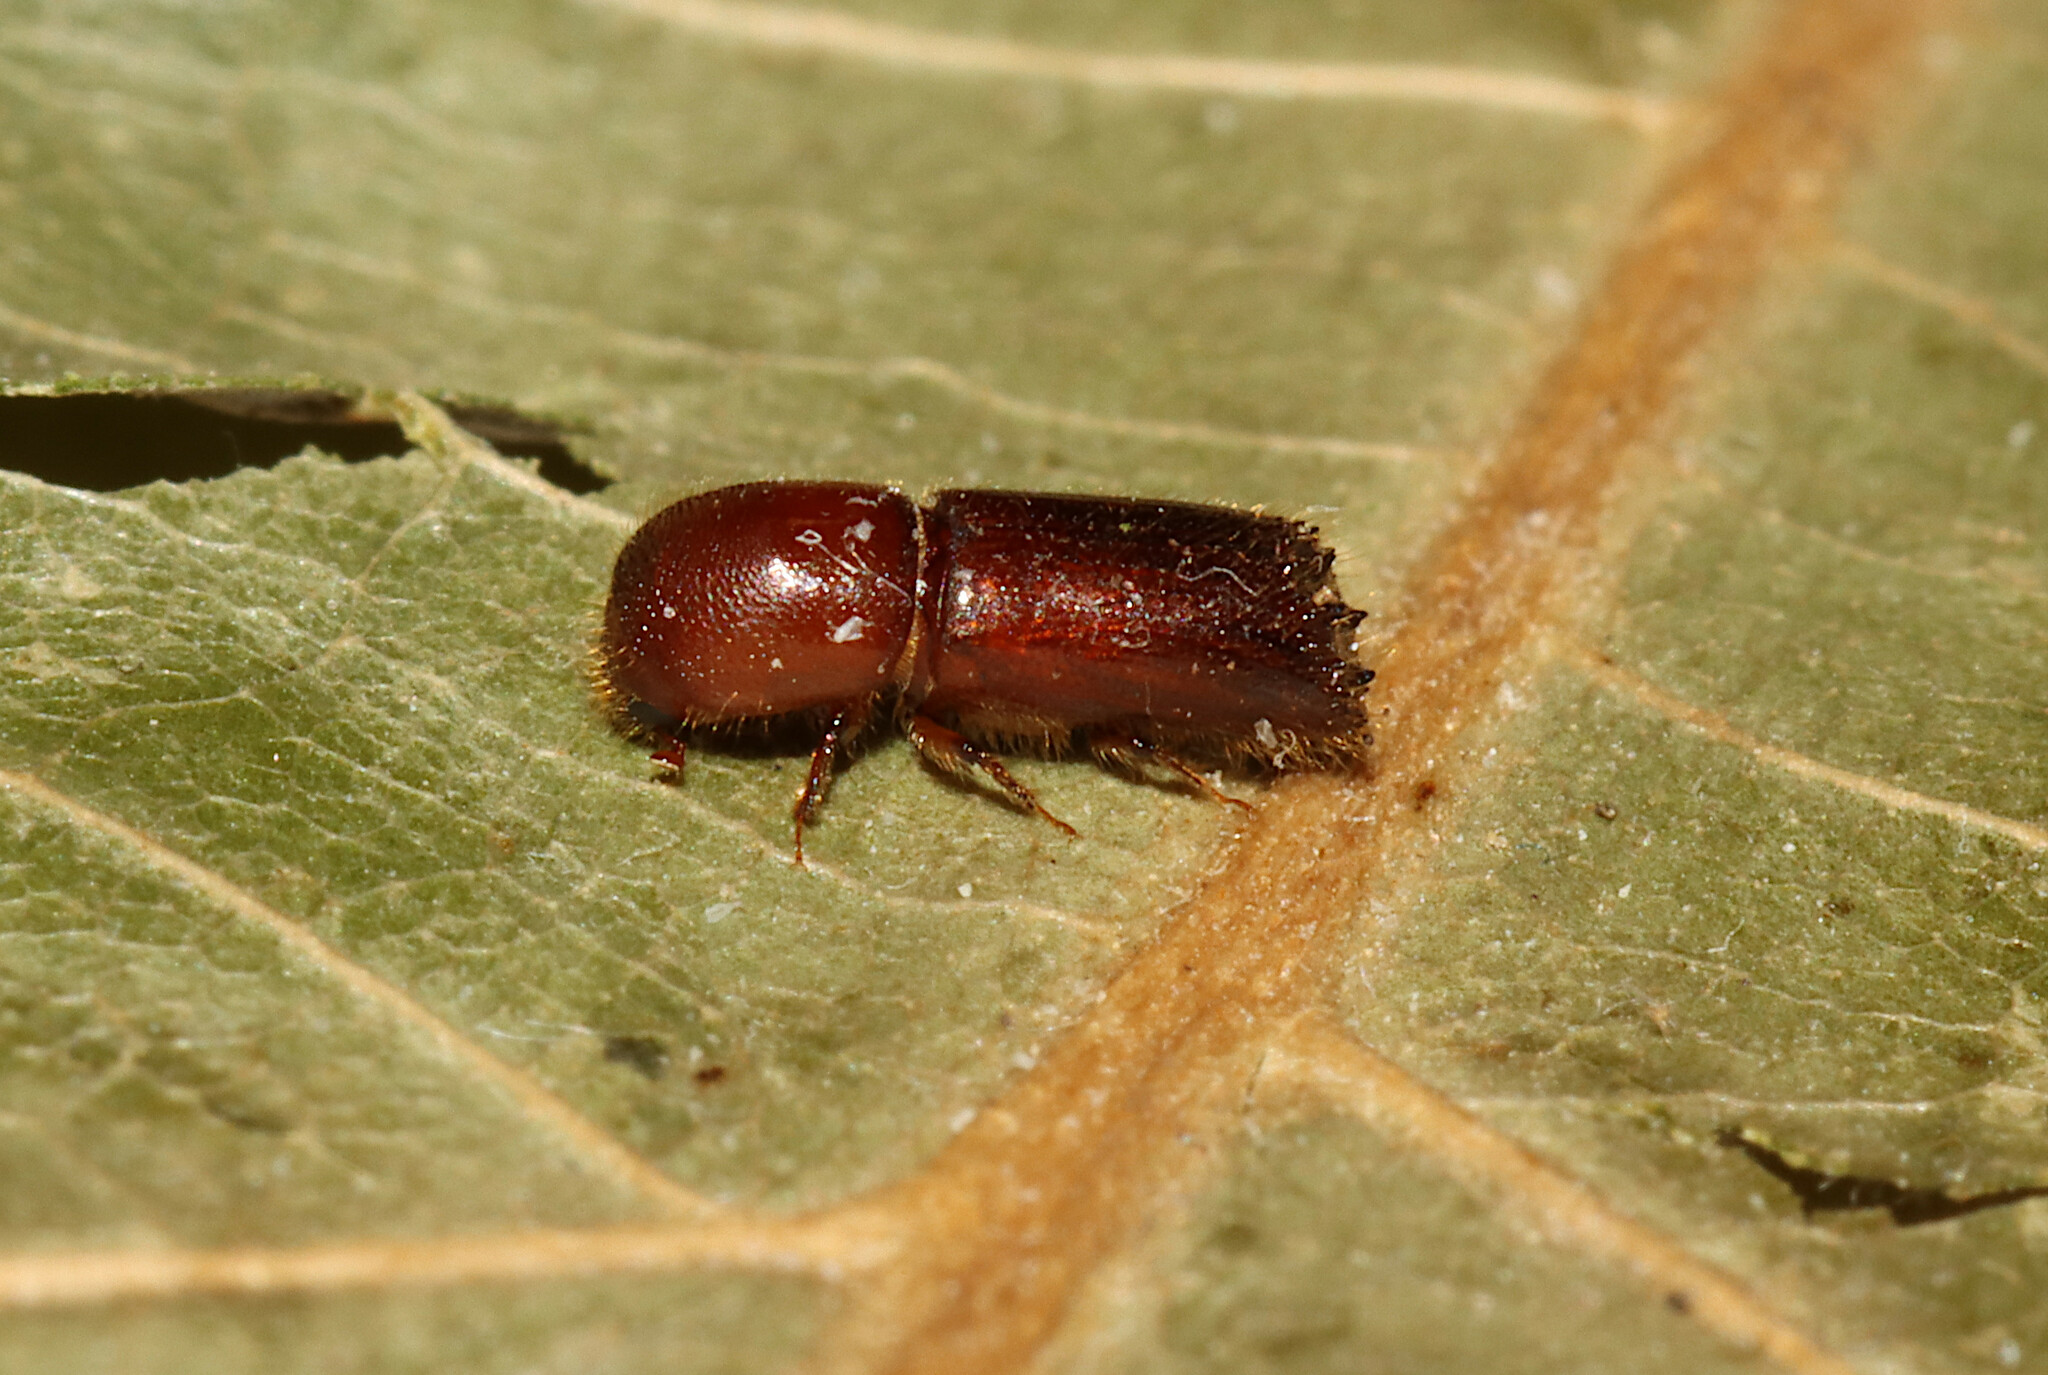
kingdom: Animalia
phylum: Arthropoda
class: Insecta
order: Coleoptera
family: Curculionidae
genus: Xyleborus
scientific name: Xyleborus celsus
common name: Weevil
